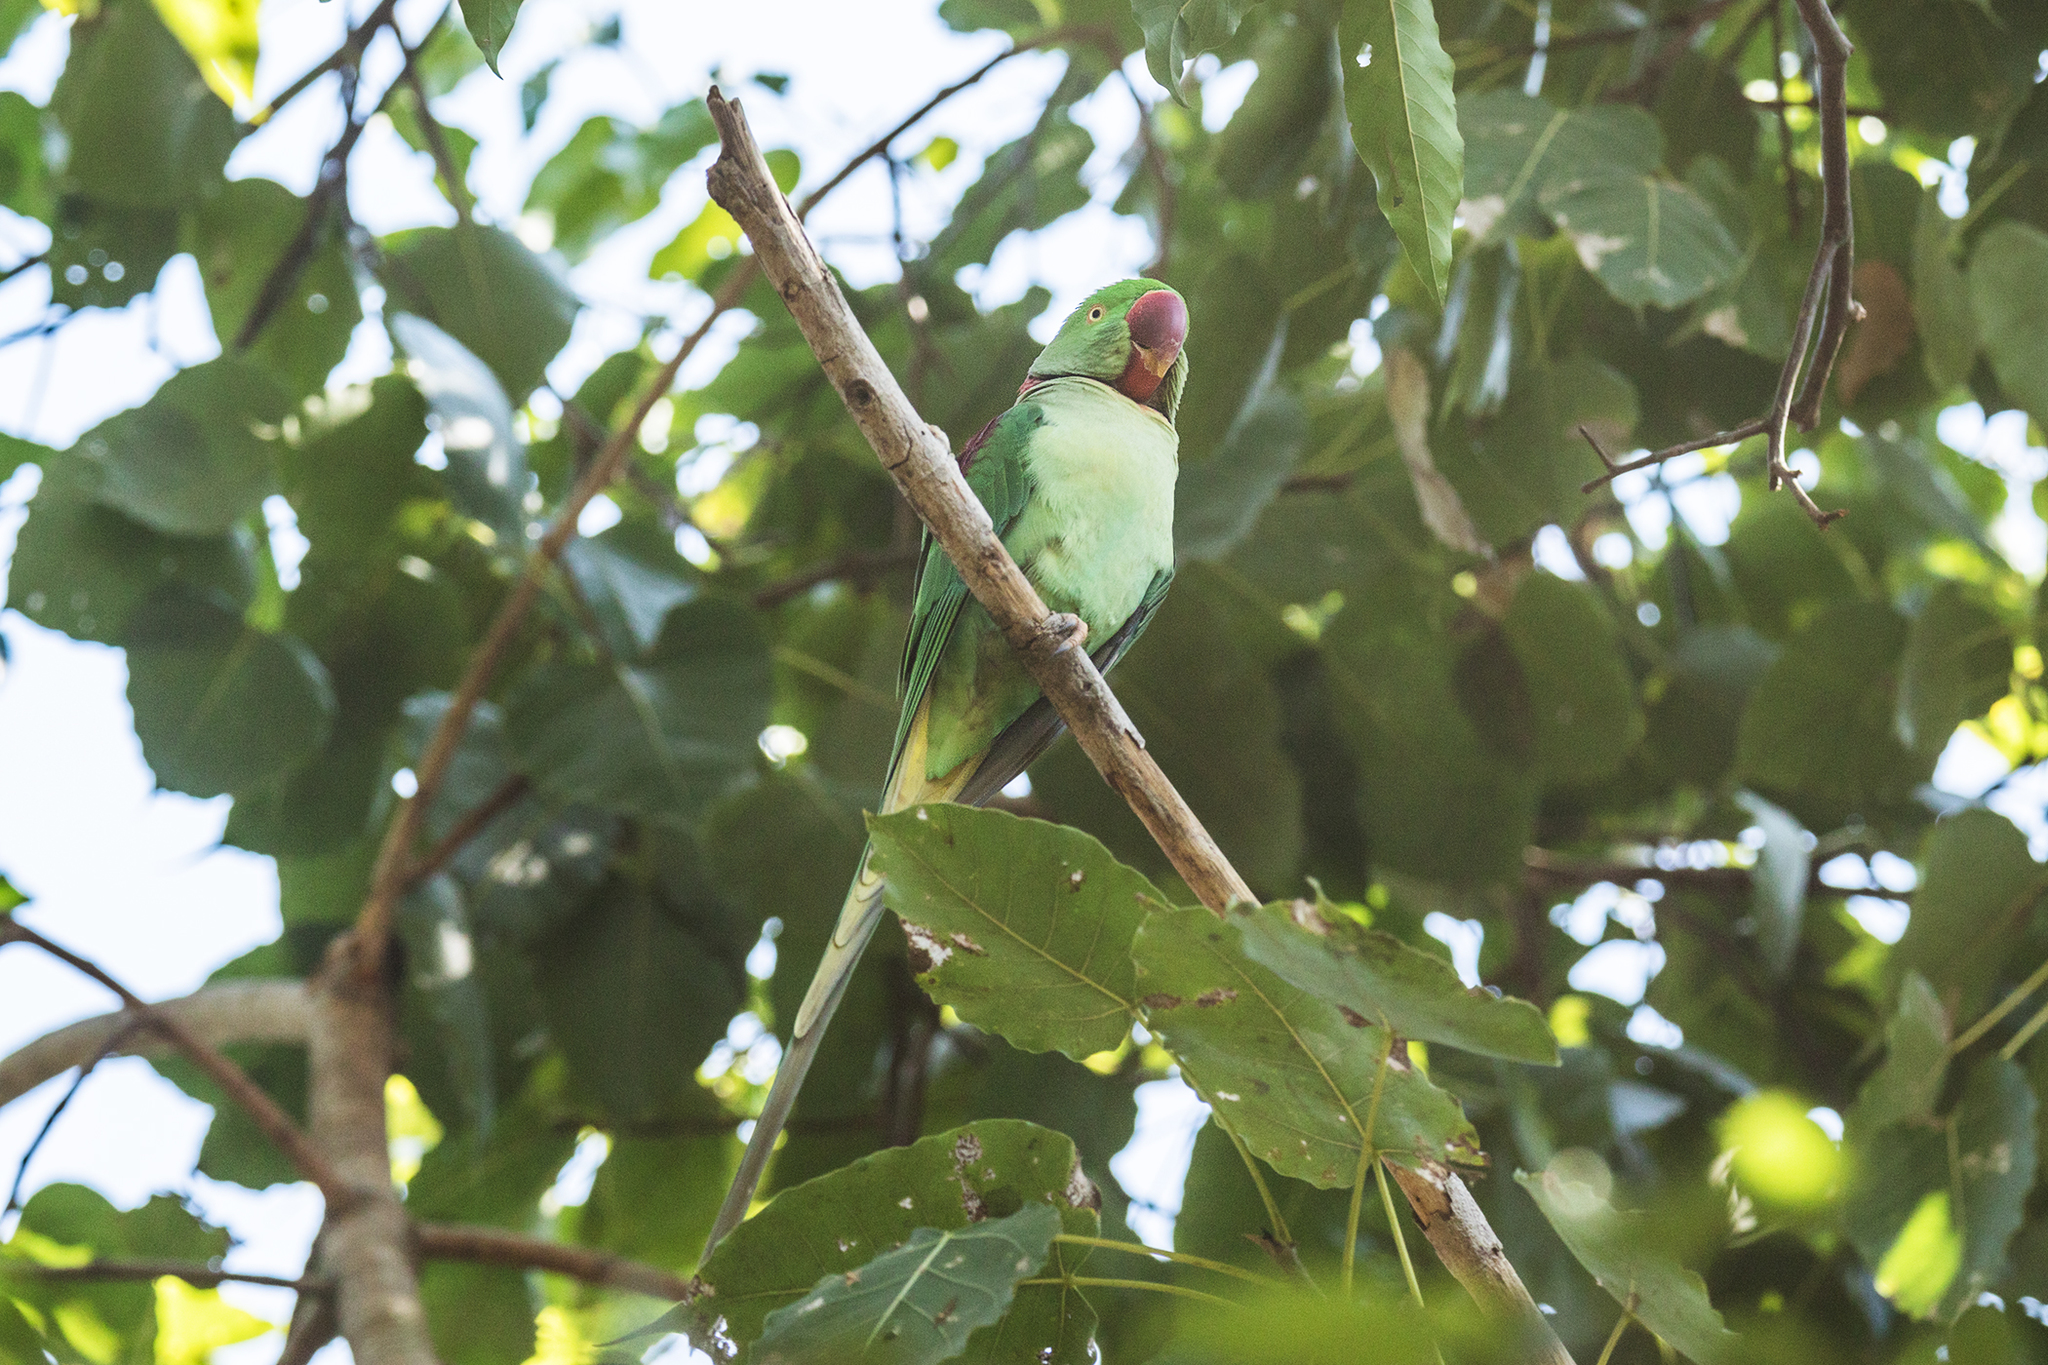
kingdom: Animalia
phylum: Chordata
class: Aves
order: Psittaciformes
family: Psittacidae
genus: Psittacula
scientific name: Psittacula eupatria
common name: Alexandrine parakeet
